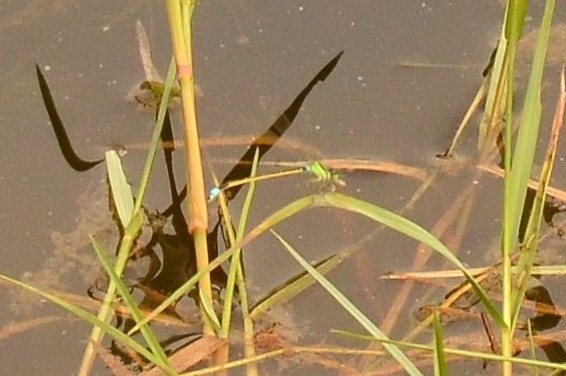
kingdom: Animalia
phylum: Arthropoda
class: Insecta
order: Odonata
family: Coenagrionidae
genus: Ischnura
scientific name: Ischnura senegalensis
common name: Tropical bluetail
